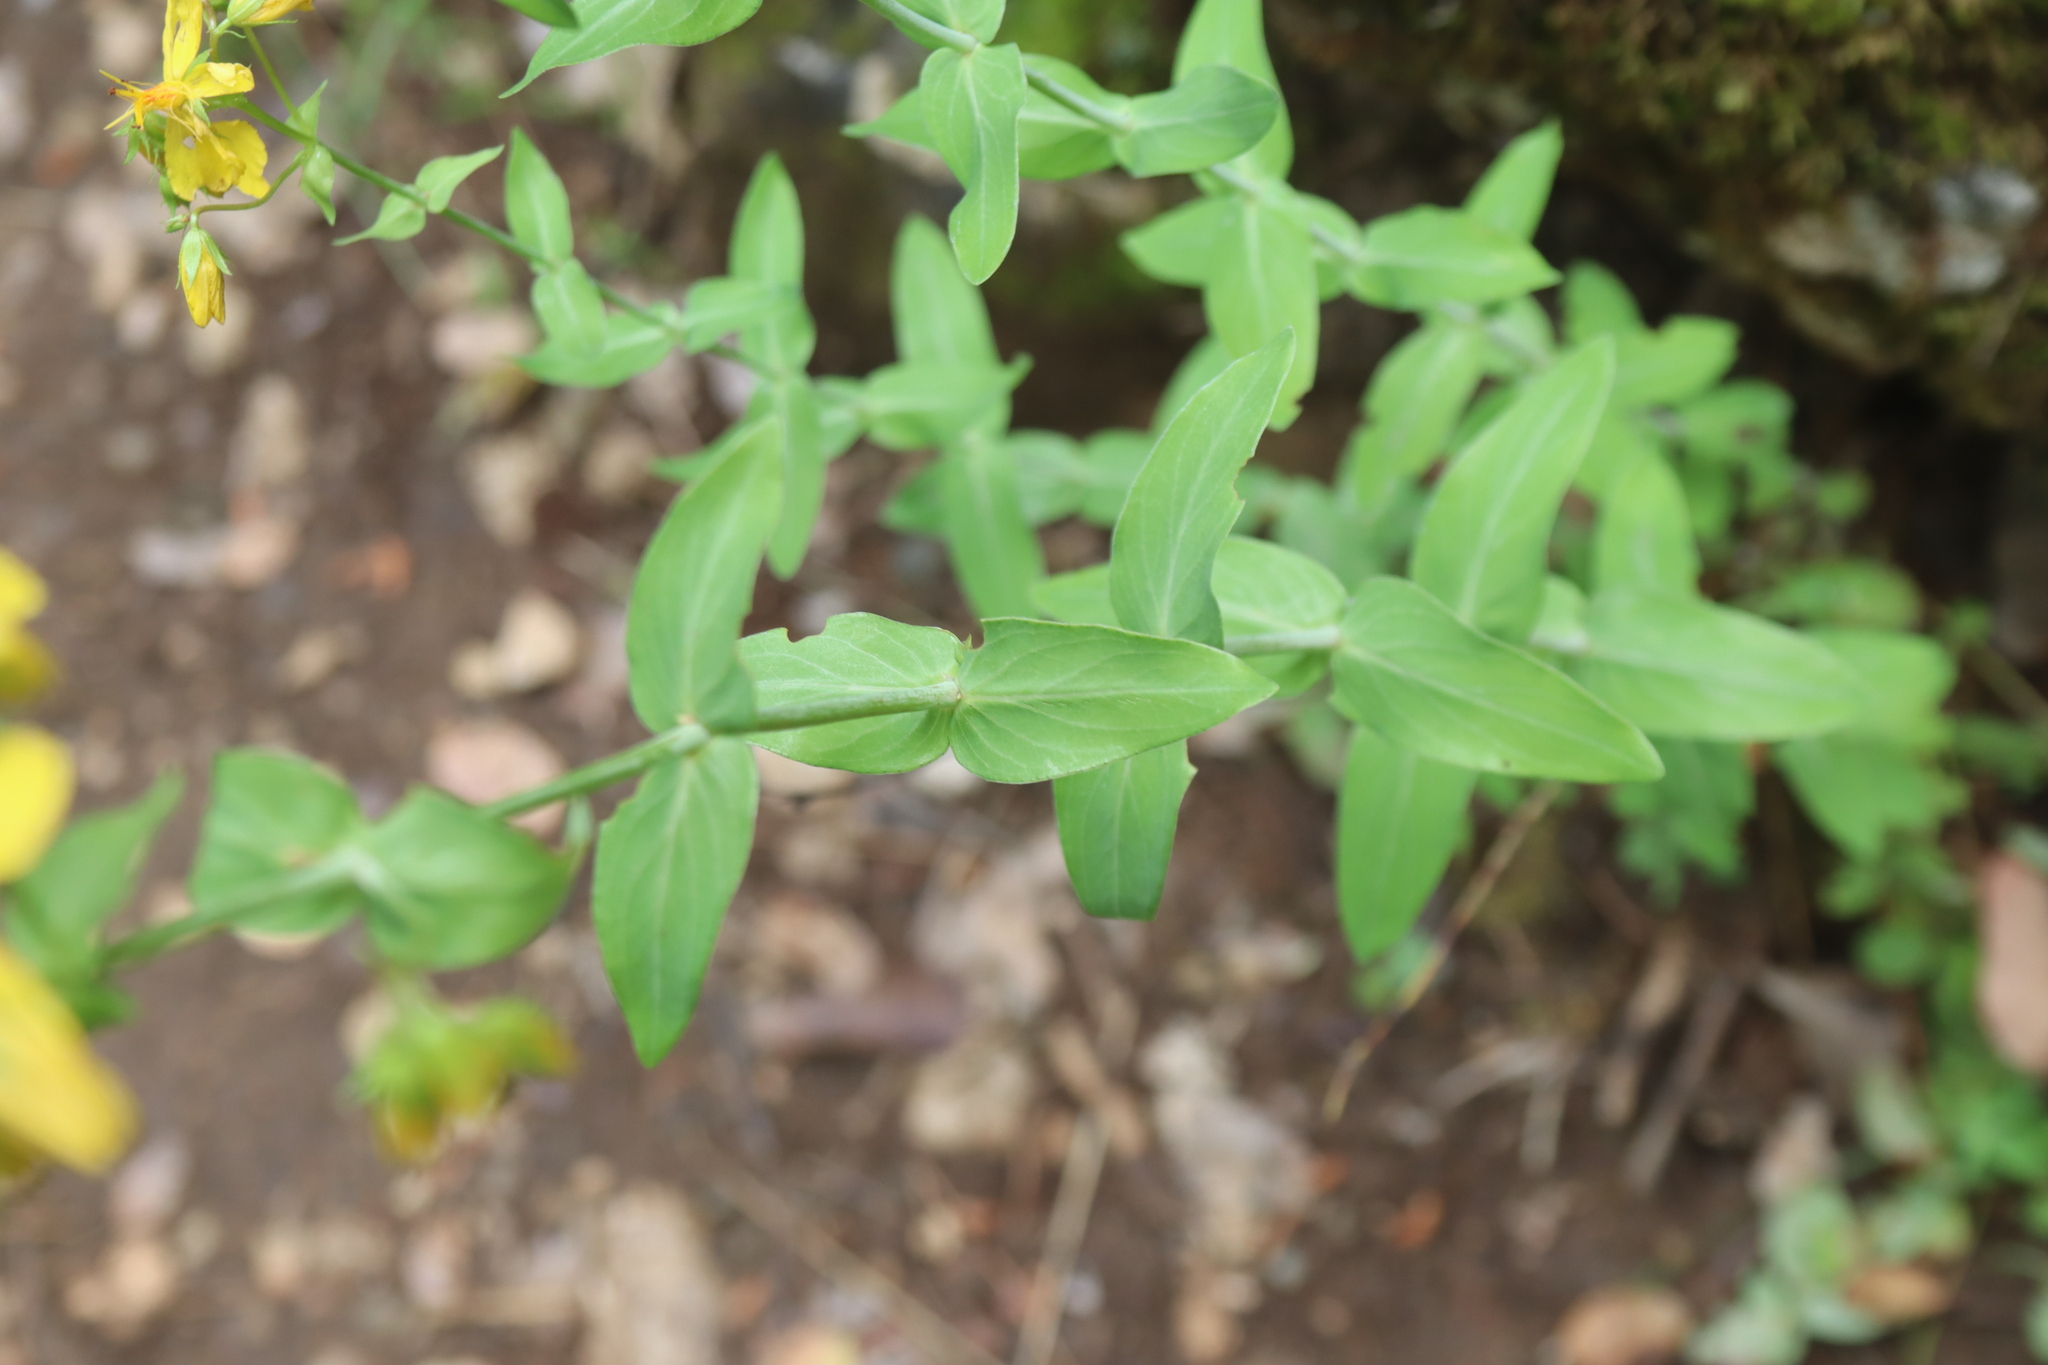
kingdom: Plantae
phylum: Tracheophyta
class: Magnoliopsida
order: Malpighiales
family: Hypericaceae
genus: Hypericum
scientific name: Hypericum montbretii
